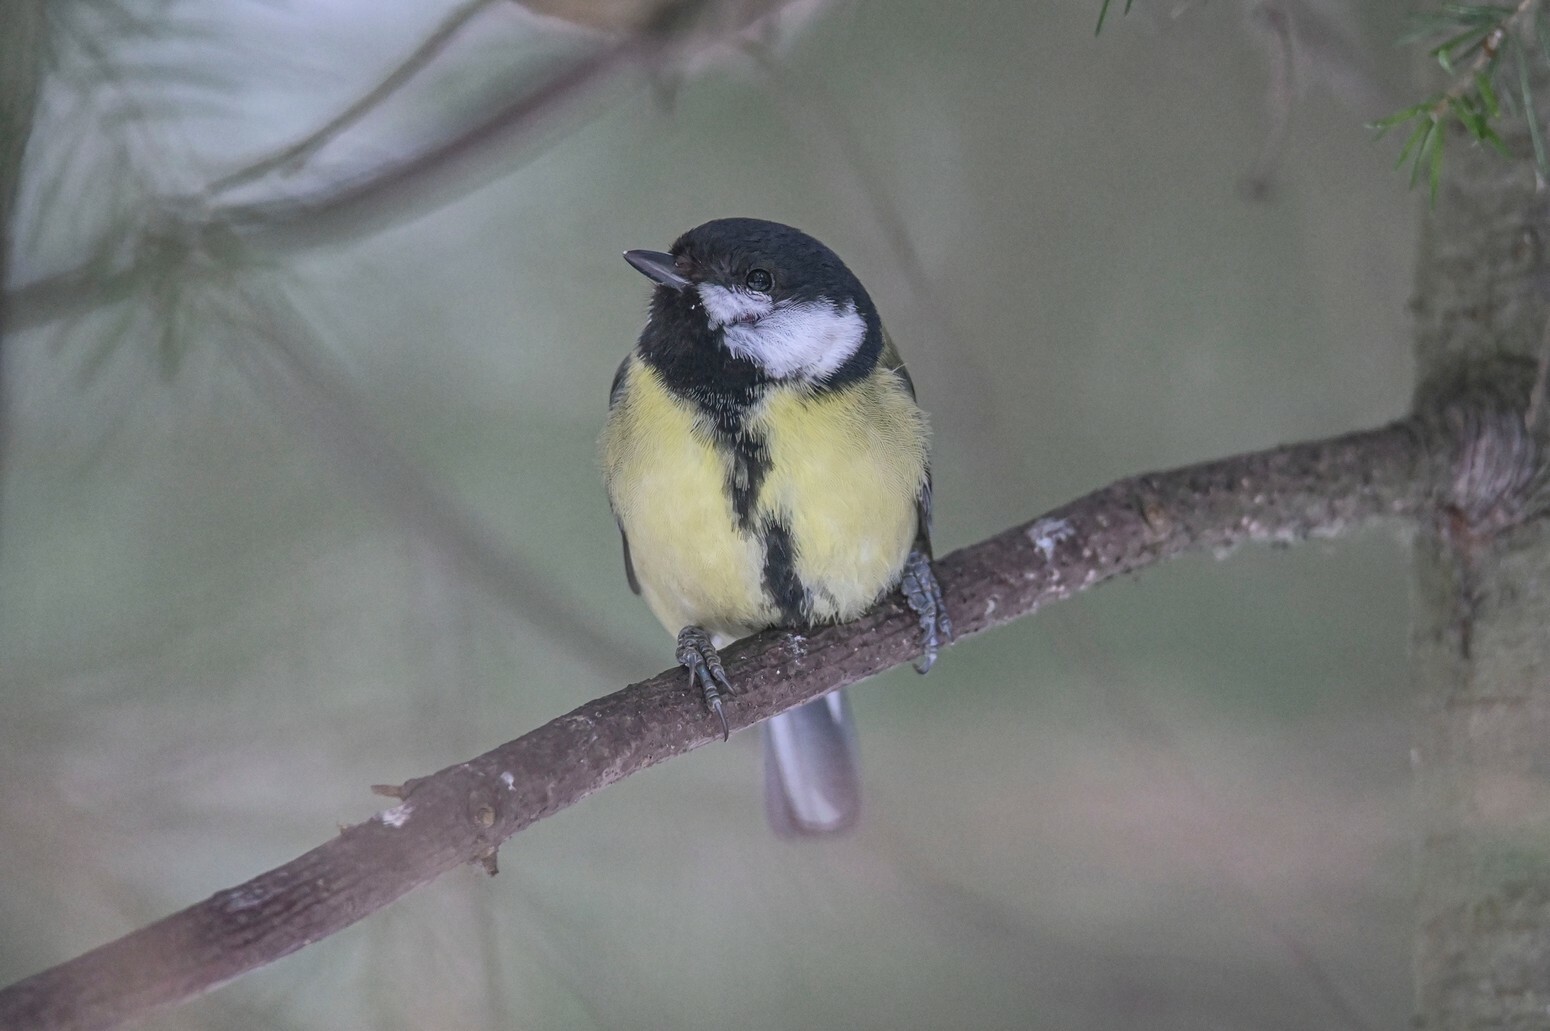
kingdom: Animalia
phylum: Chordata
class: Aves
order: Passeriformes
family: Paridae
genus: Parus
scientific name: Parus major
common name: Great tit
